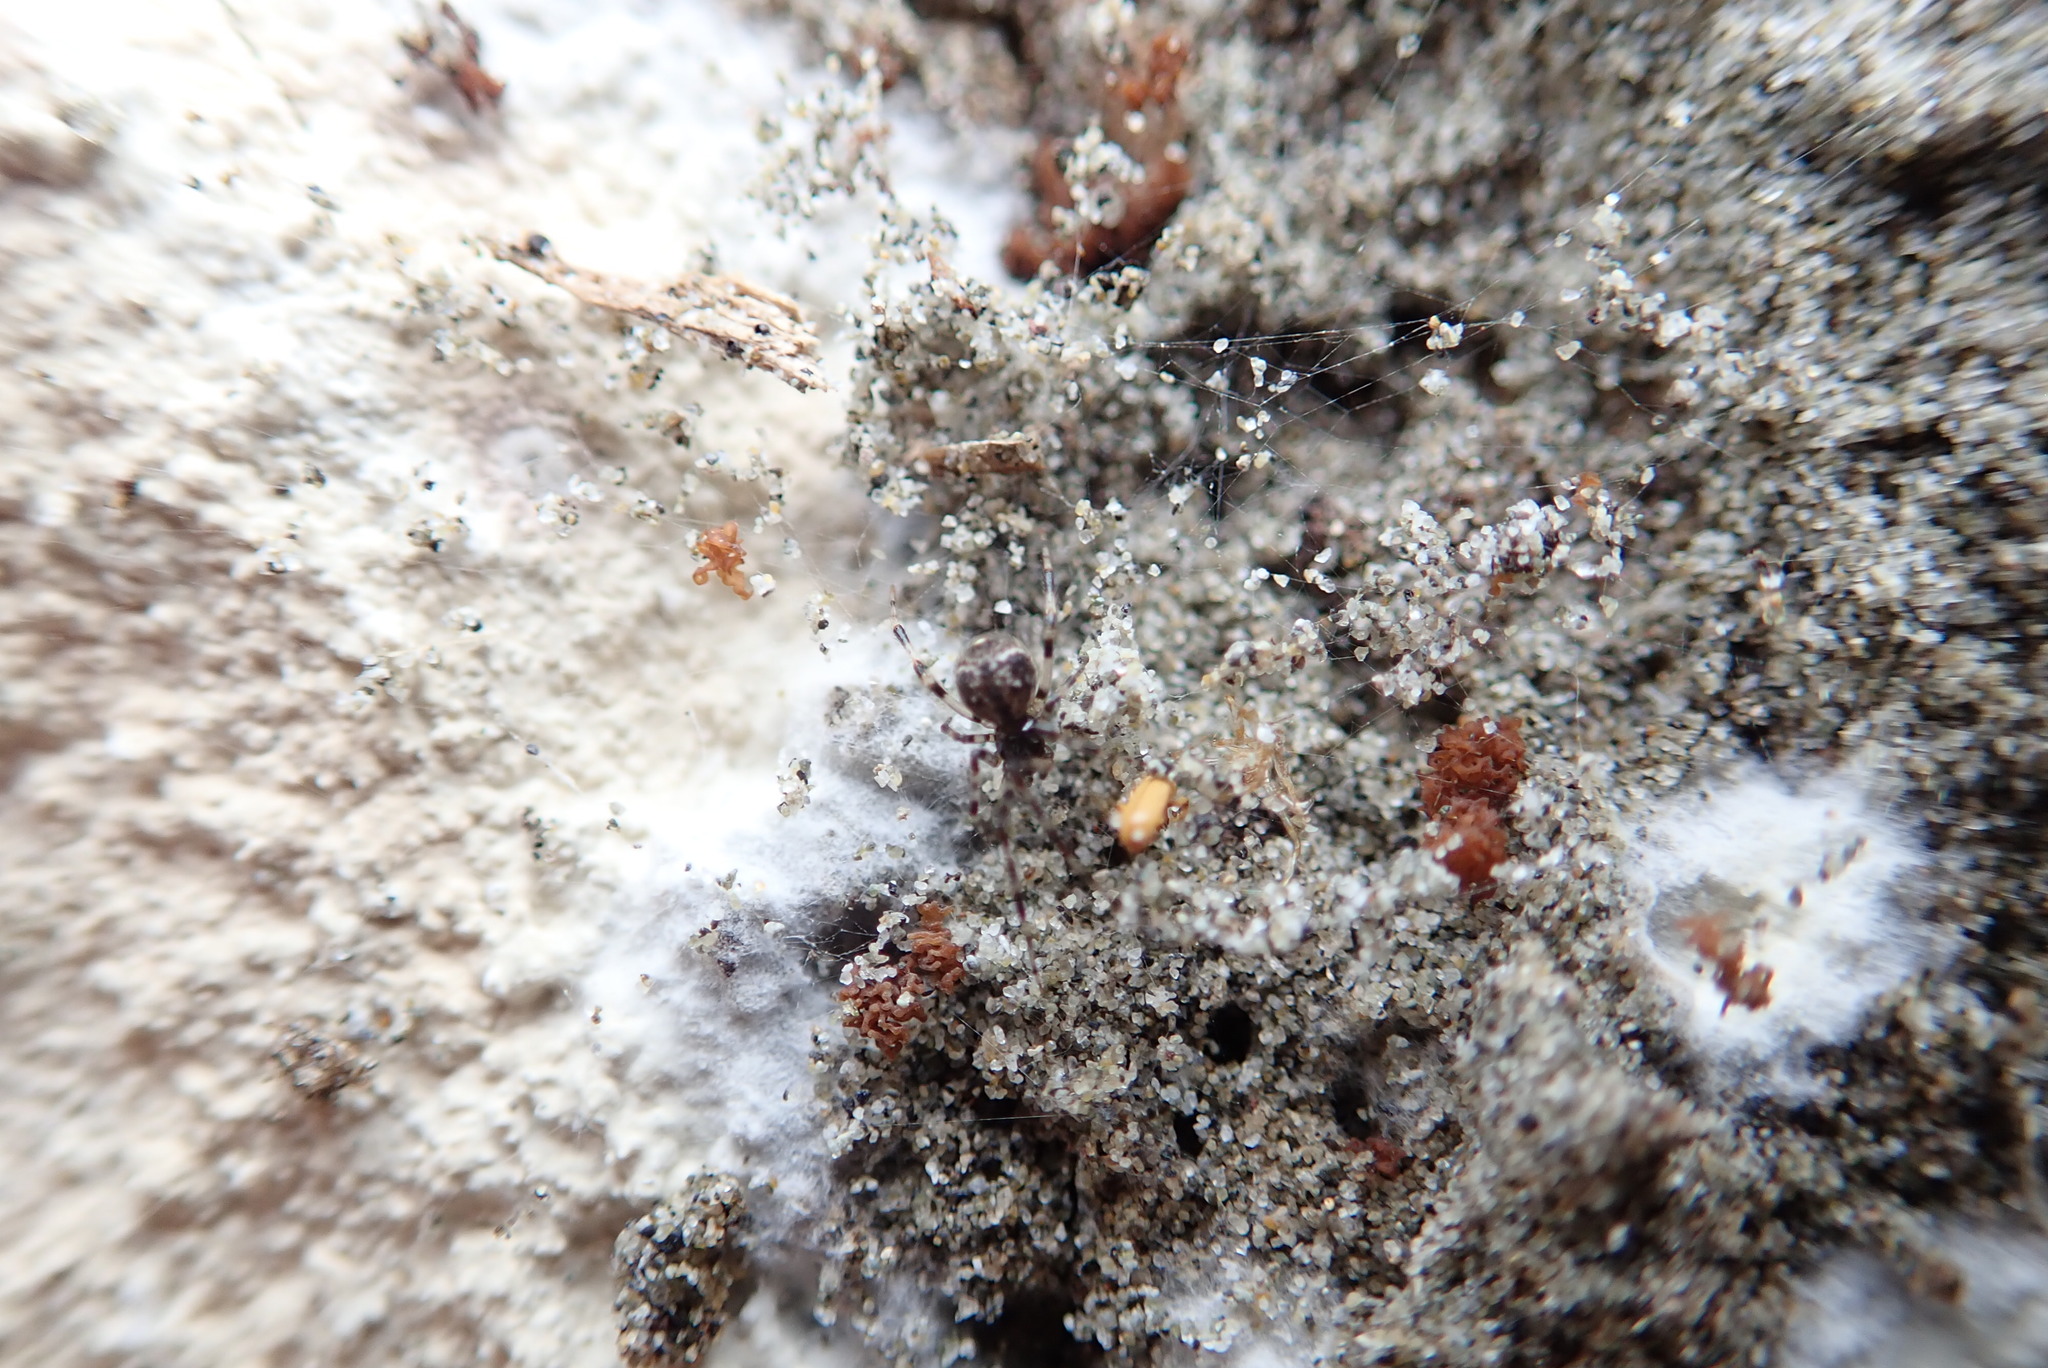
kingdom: Animalia
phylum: Arthropoda
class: Arachnida
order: Araneae
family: Theridiidae
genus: Cryptachaea
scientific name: Cryptachaea blattea
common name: Theridiid spider
